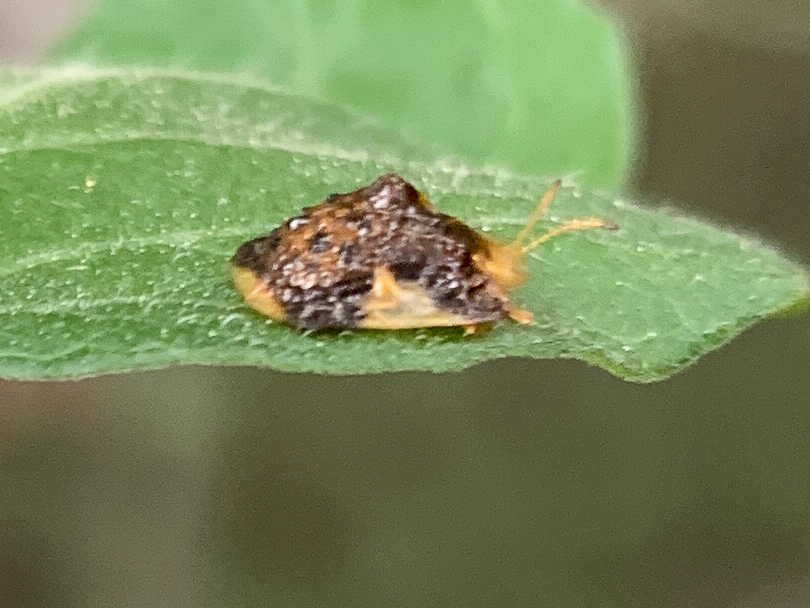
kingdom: Animalia
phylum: Arthropoda
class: Insecta
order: Coleoptera
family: Chrysomelidae
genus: Helocassis
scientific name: Helocassis clavata
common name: Clavate tortoise beetle
